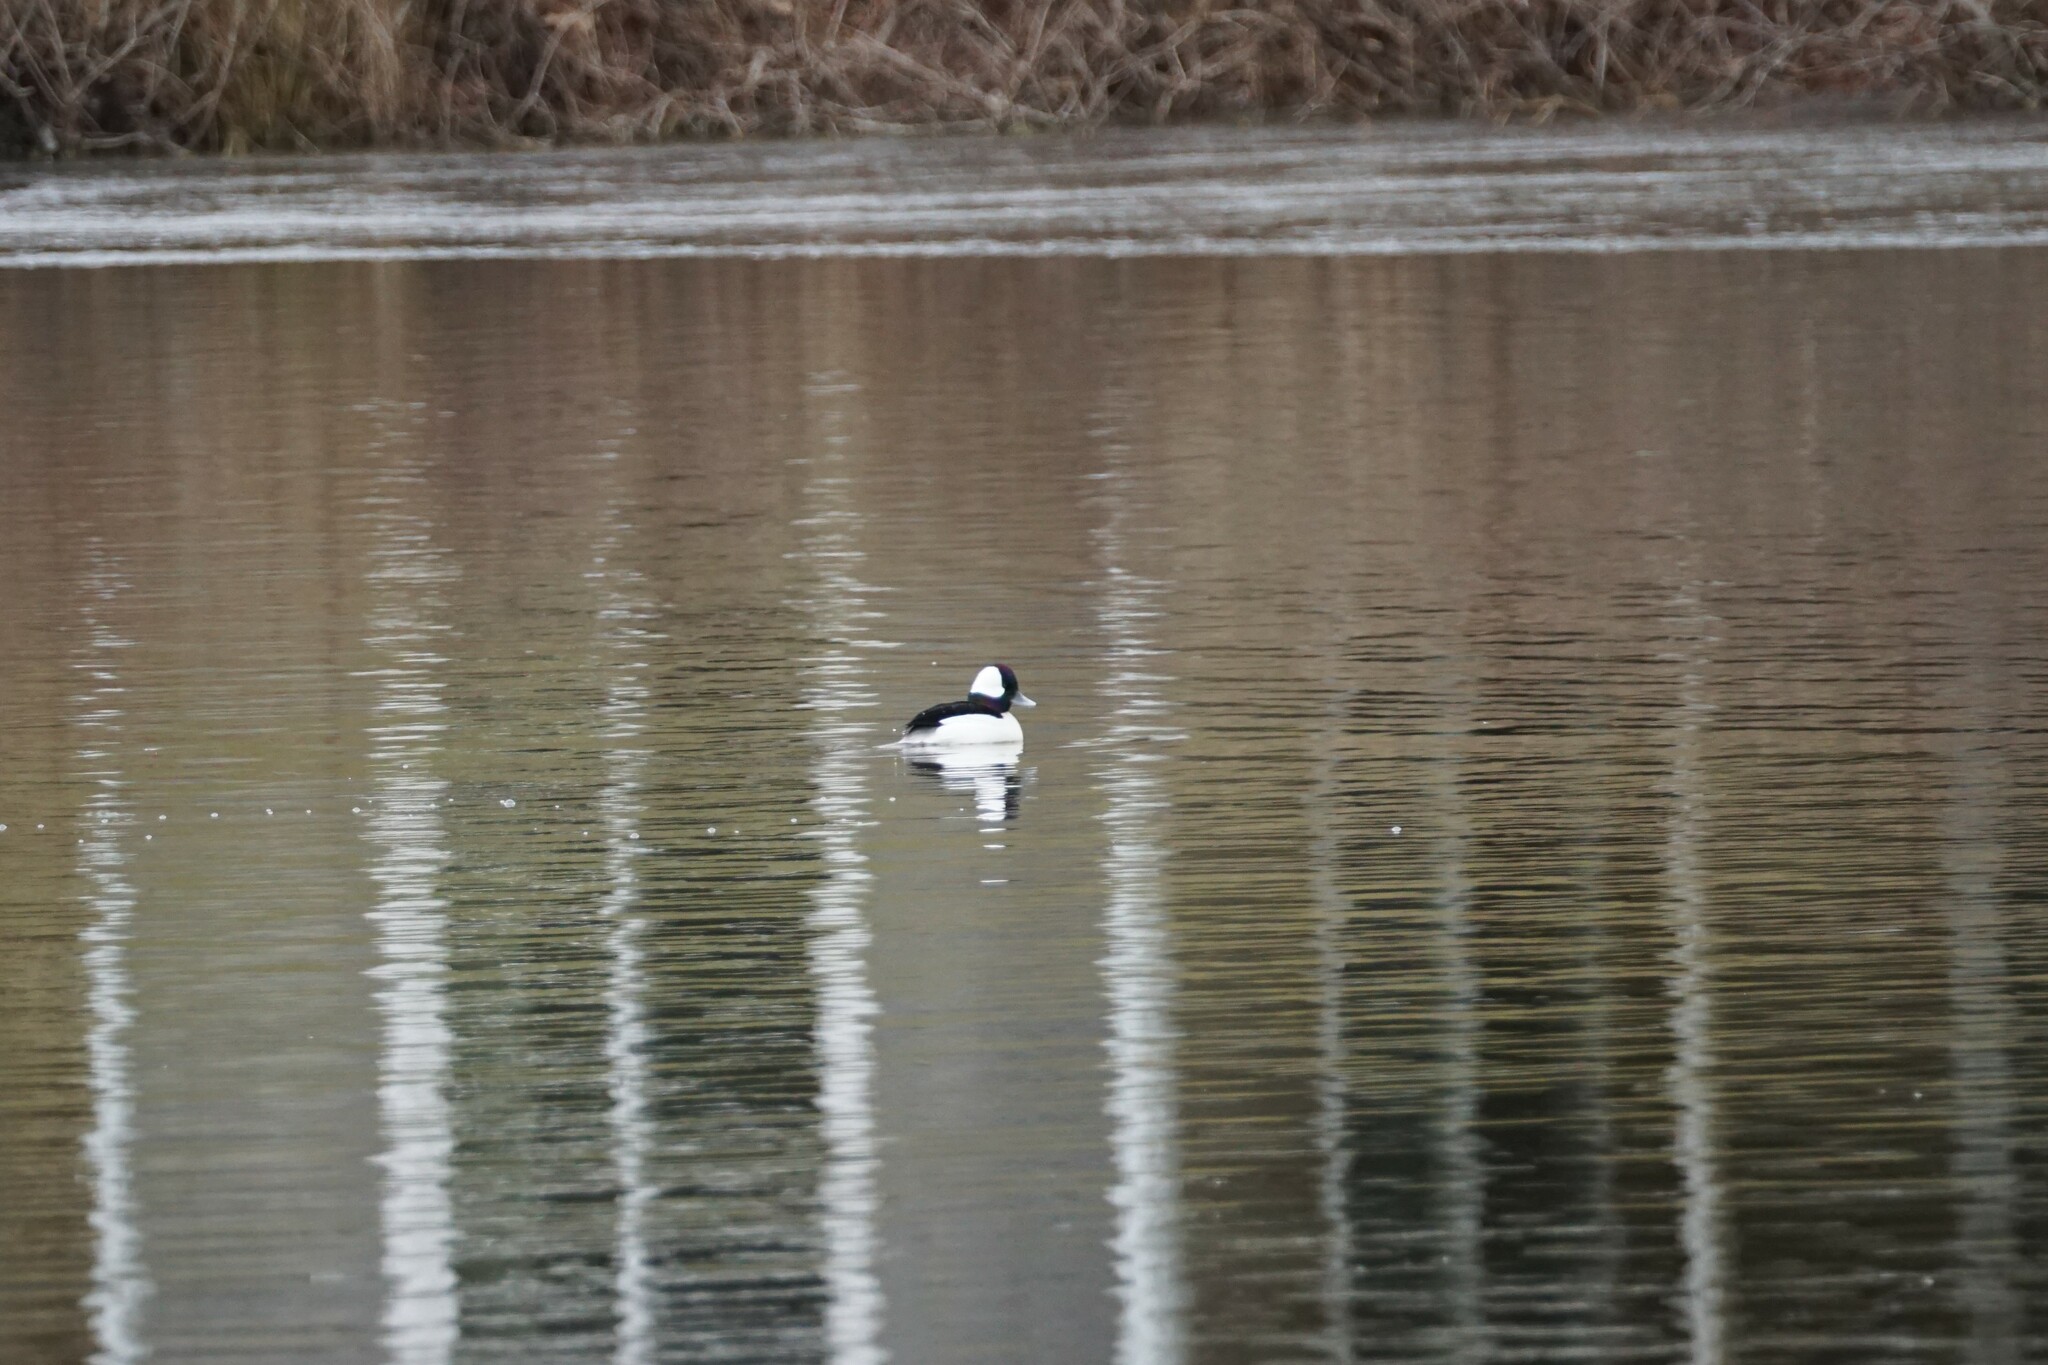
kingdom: Animalia
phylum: Chordata
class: Aves
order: Anseriformes
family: Anatidae
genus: Bucephala
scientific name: Bucephala albeola
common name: Bufflehead
